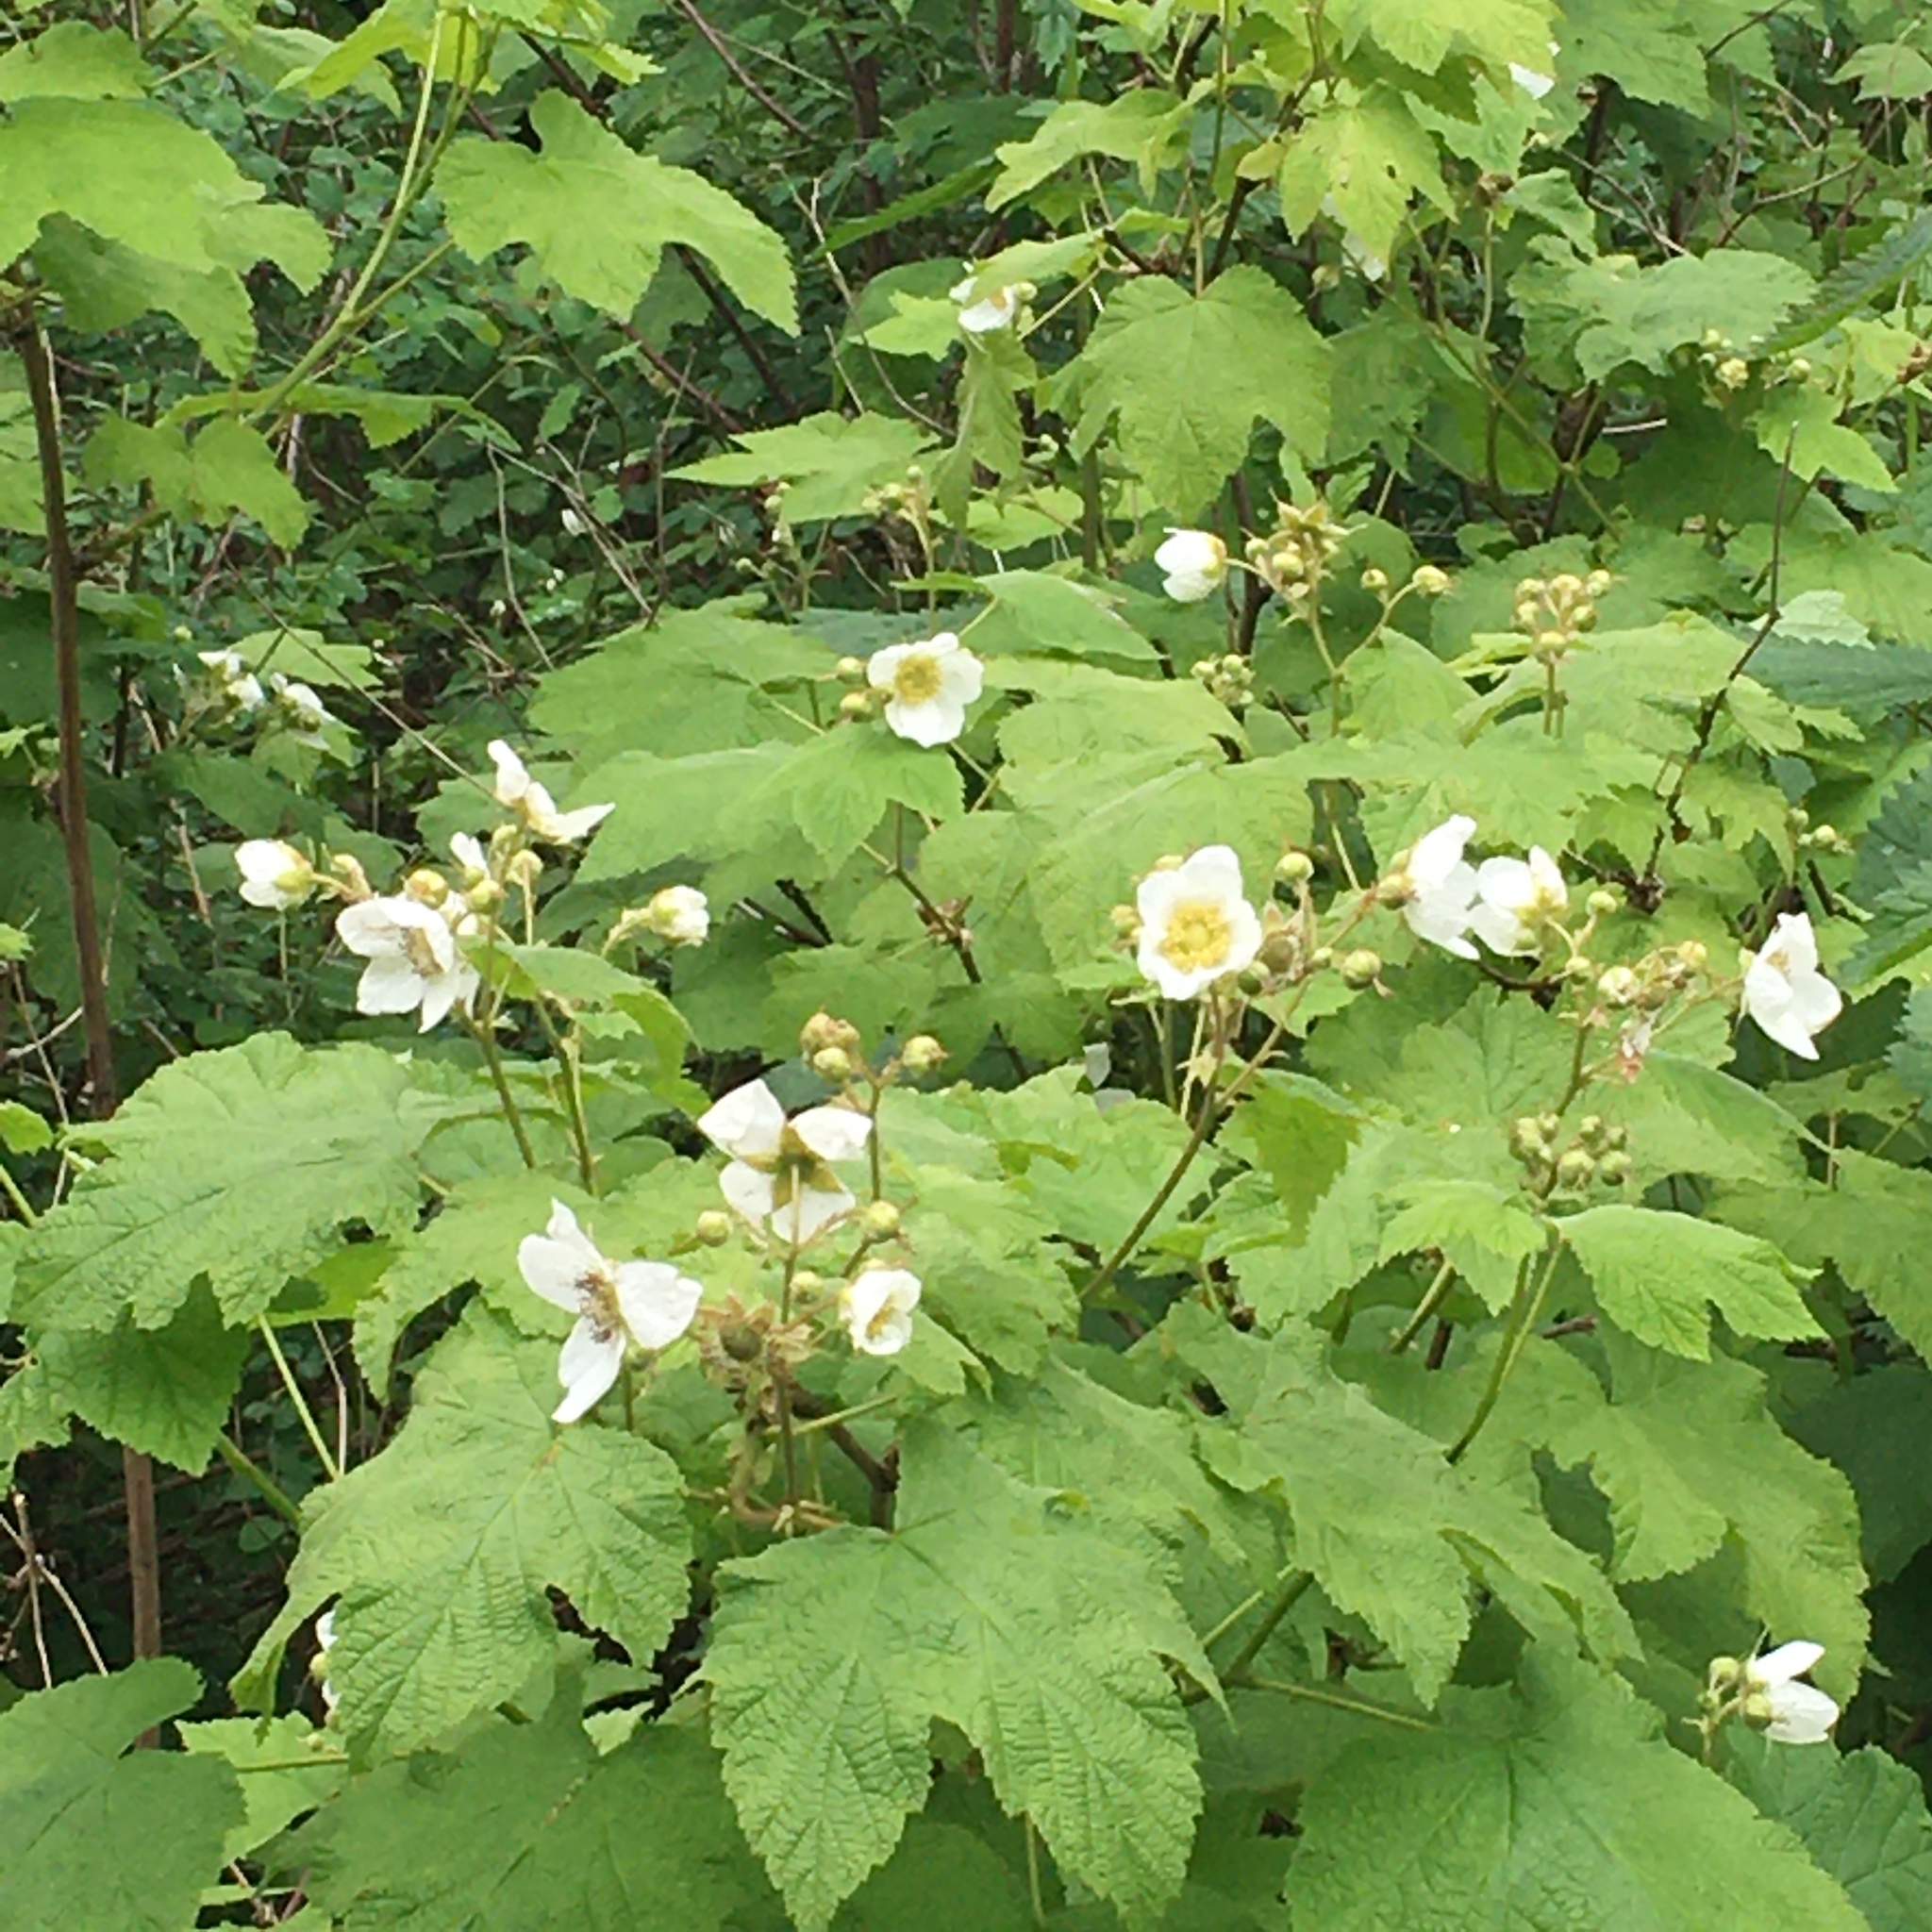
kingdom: Plantae
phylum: Tracheophyta
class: Magnoliopsida
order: Rosales
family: Rosaceae
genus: Rubus
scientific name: Rubus parviflorus
